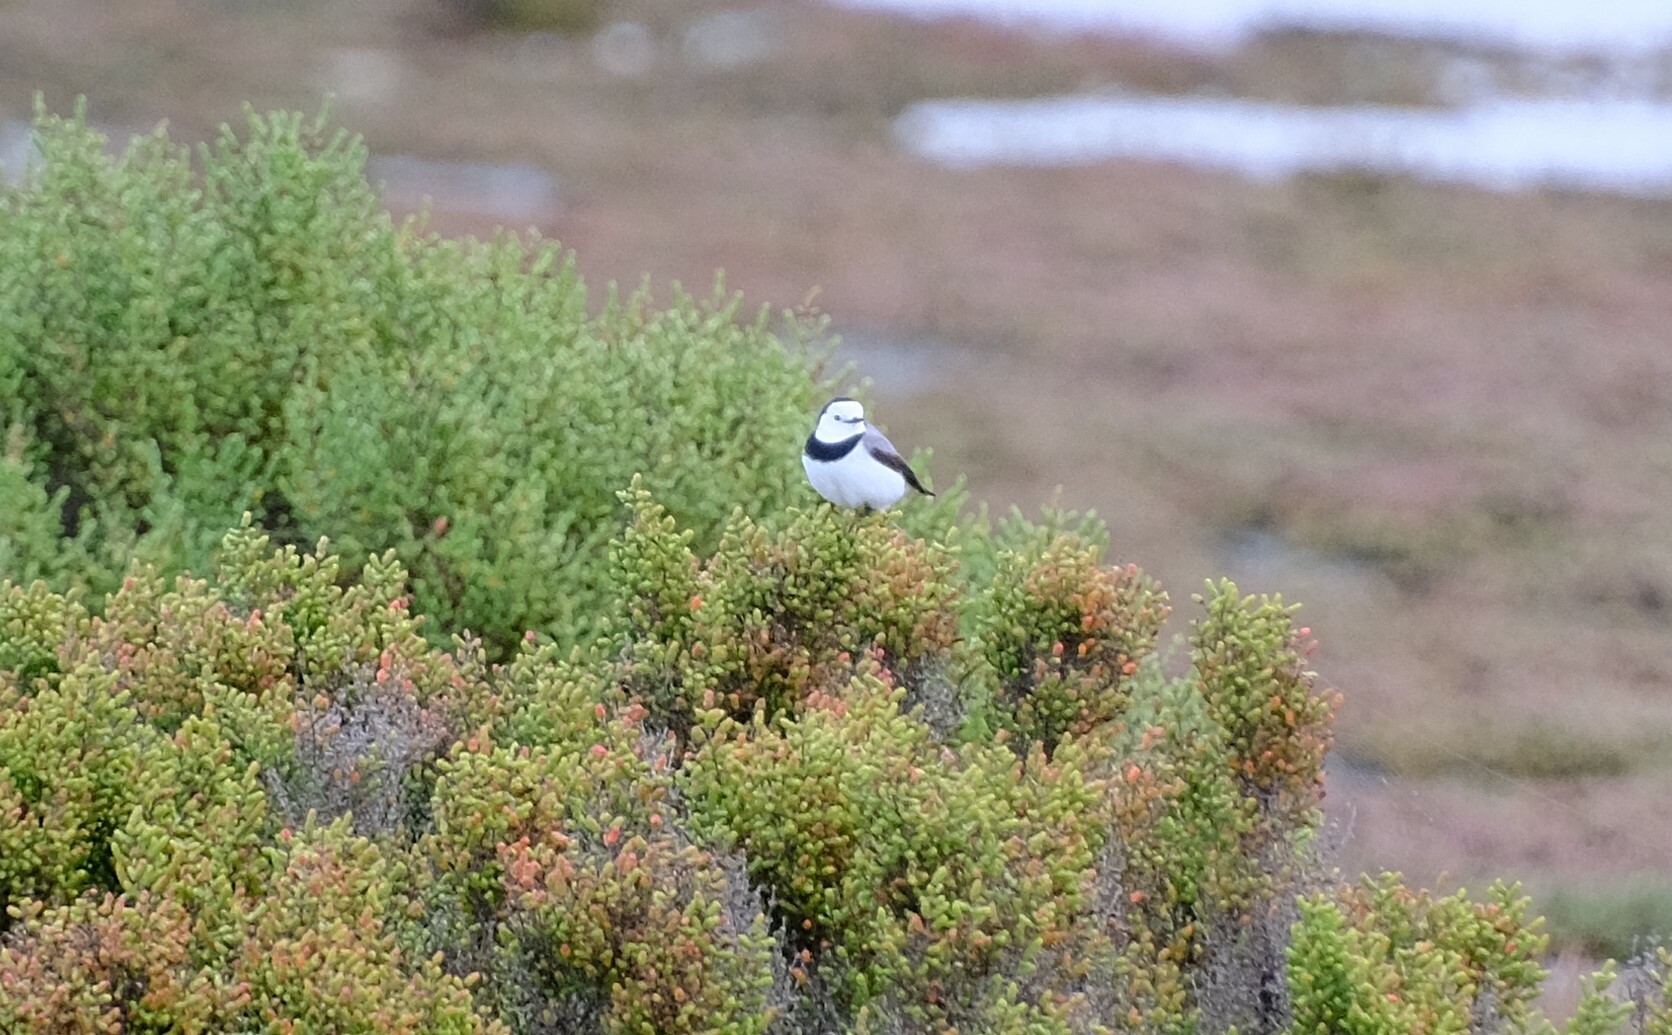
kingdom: Animalia
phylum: Chordata
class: Aves
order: Passeriformes
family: Meliphagidae
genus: Epthianura
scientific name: Epthianura albifrons
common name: White-fronted chat
